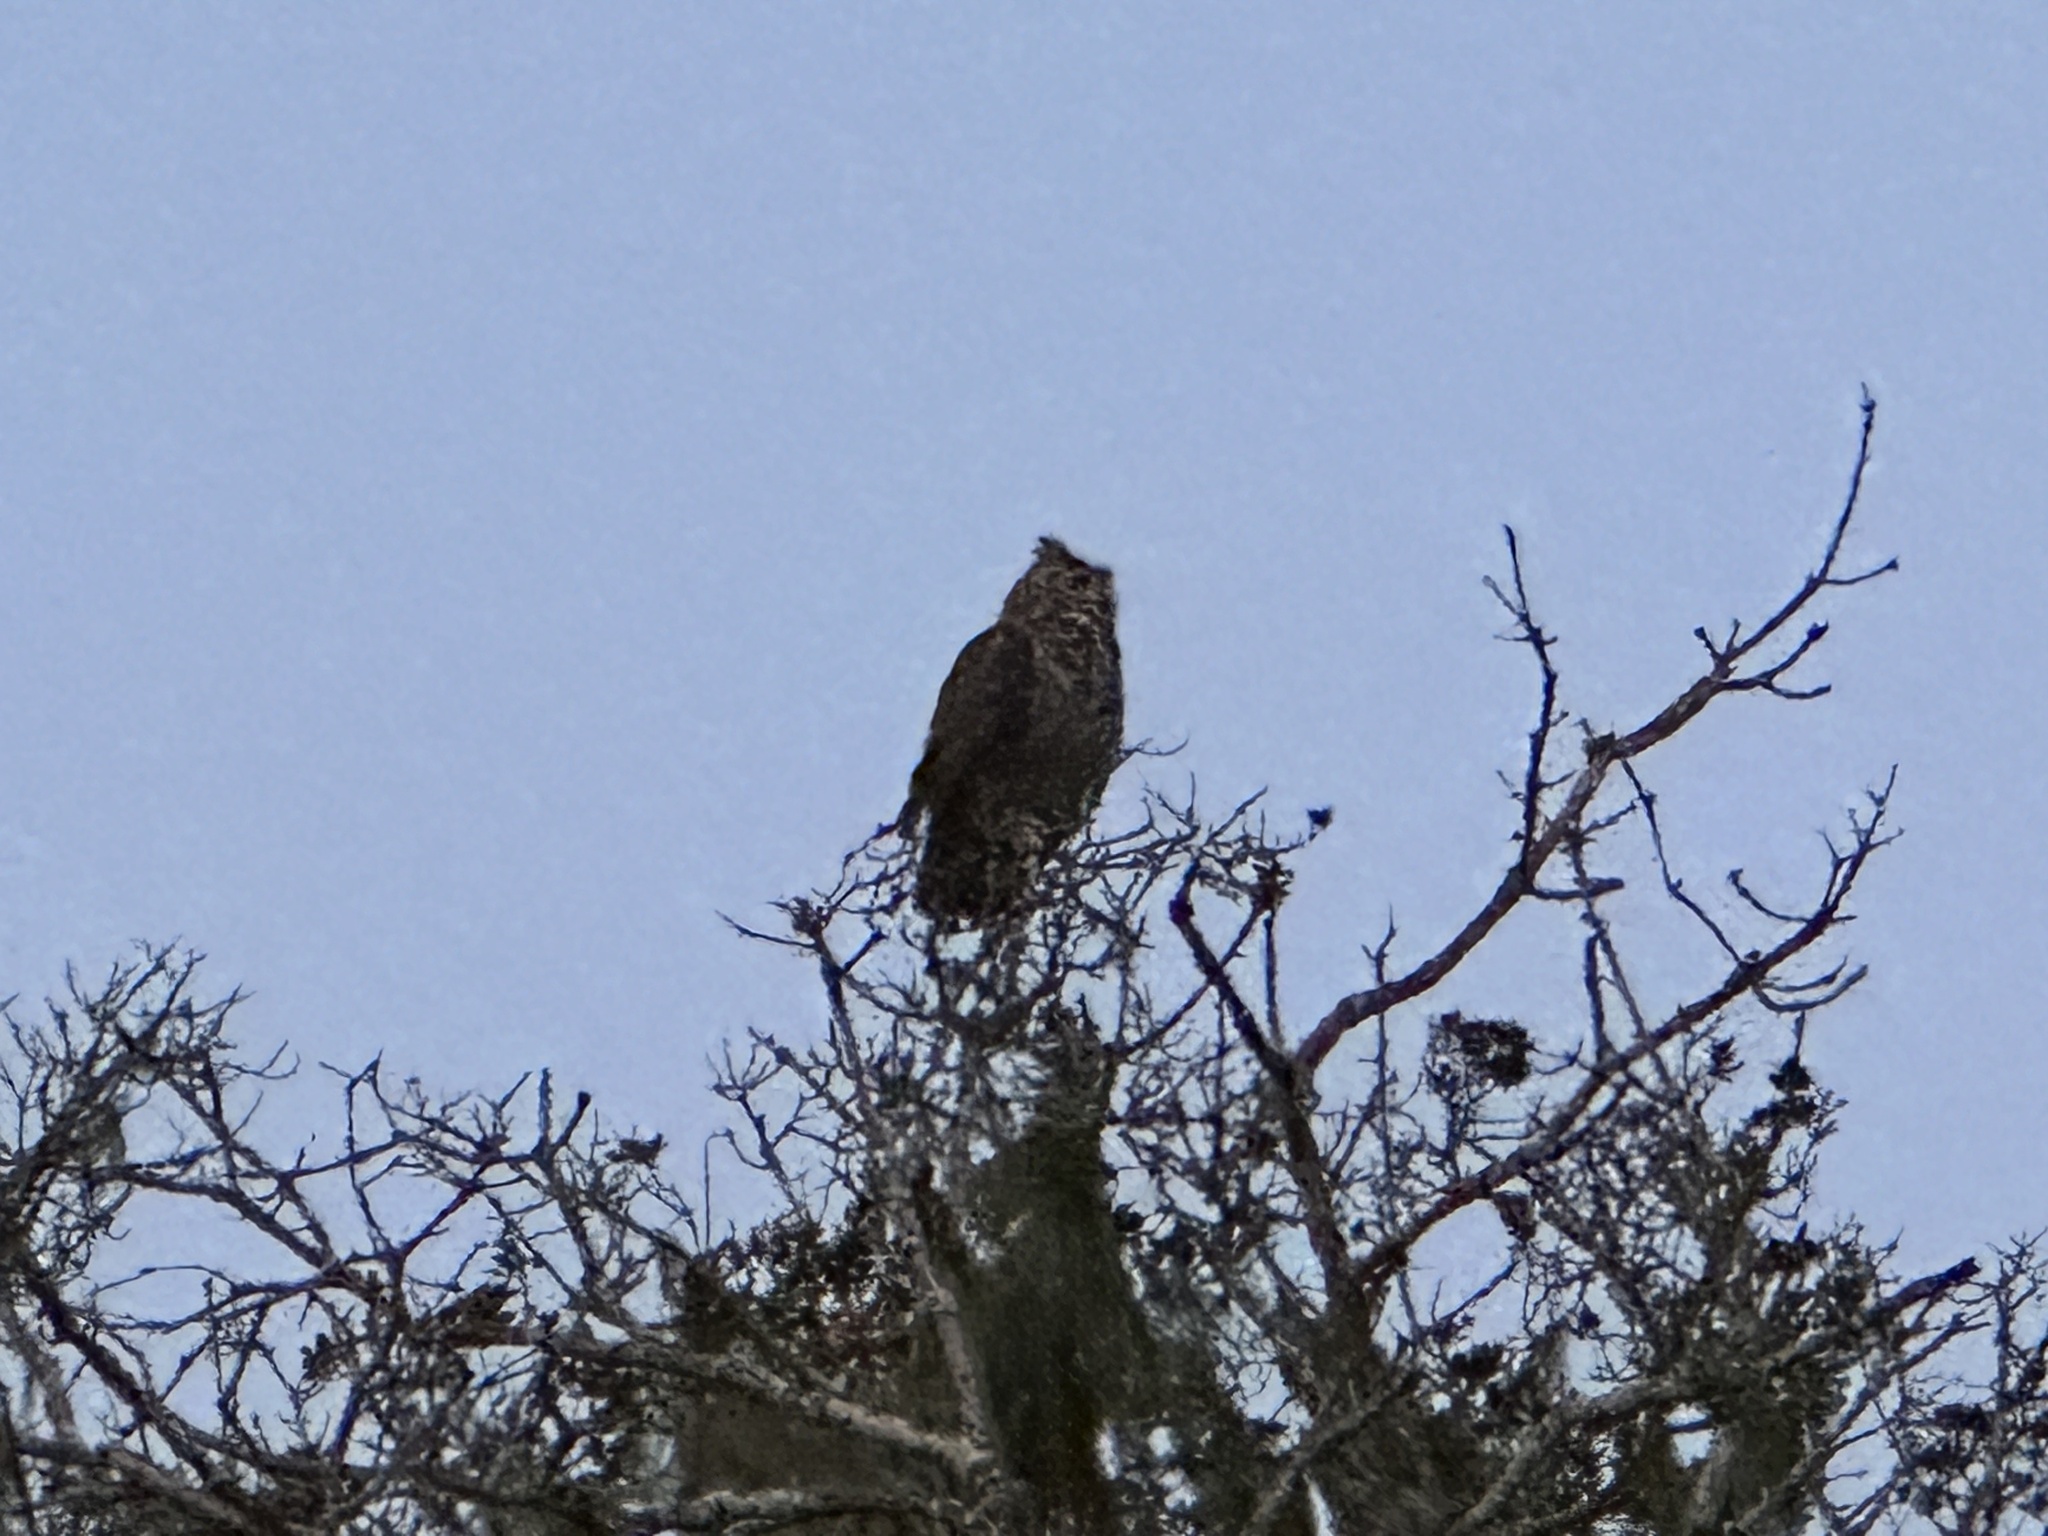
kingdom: Animalia
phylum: Chordata
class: Aves
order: Strigiformes
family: Strigidae
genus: Bubo
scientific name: Bubo virginianus
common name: Great horned owl
